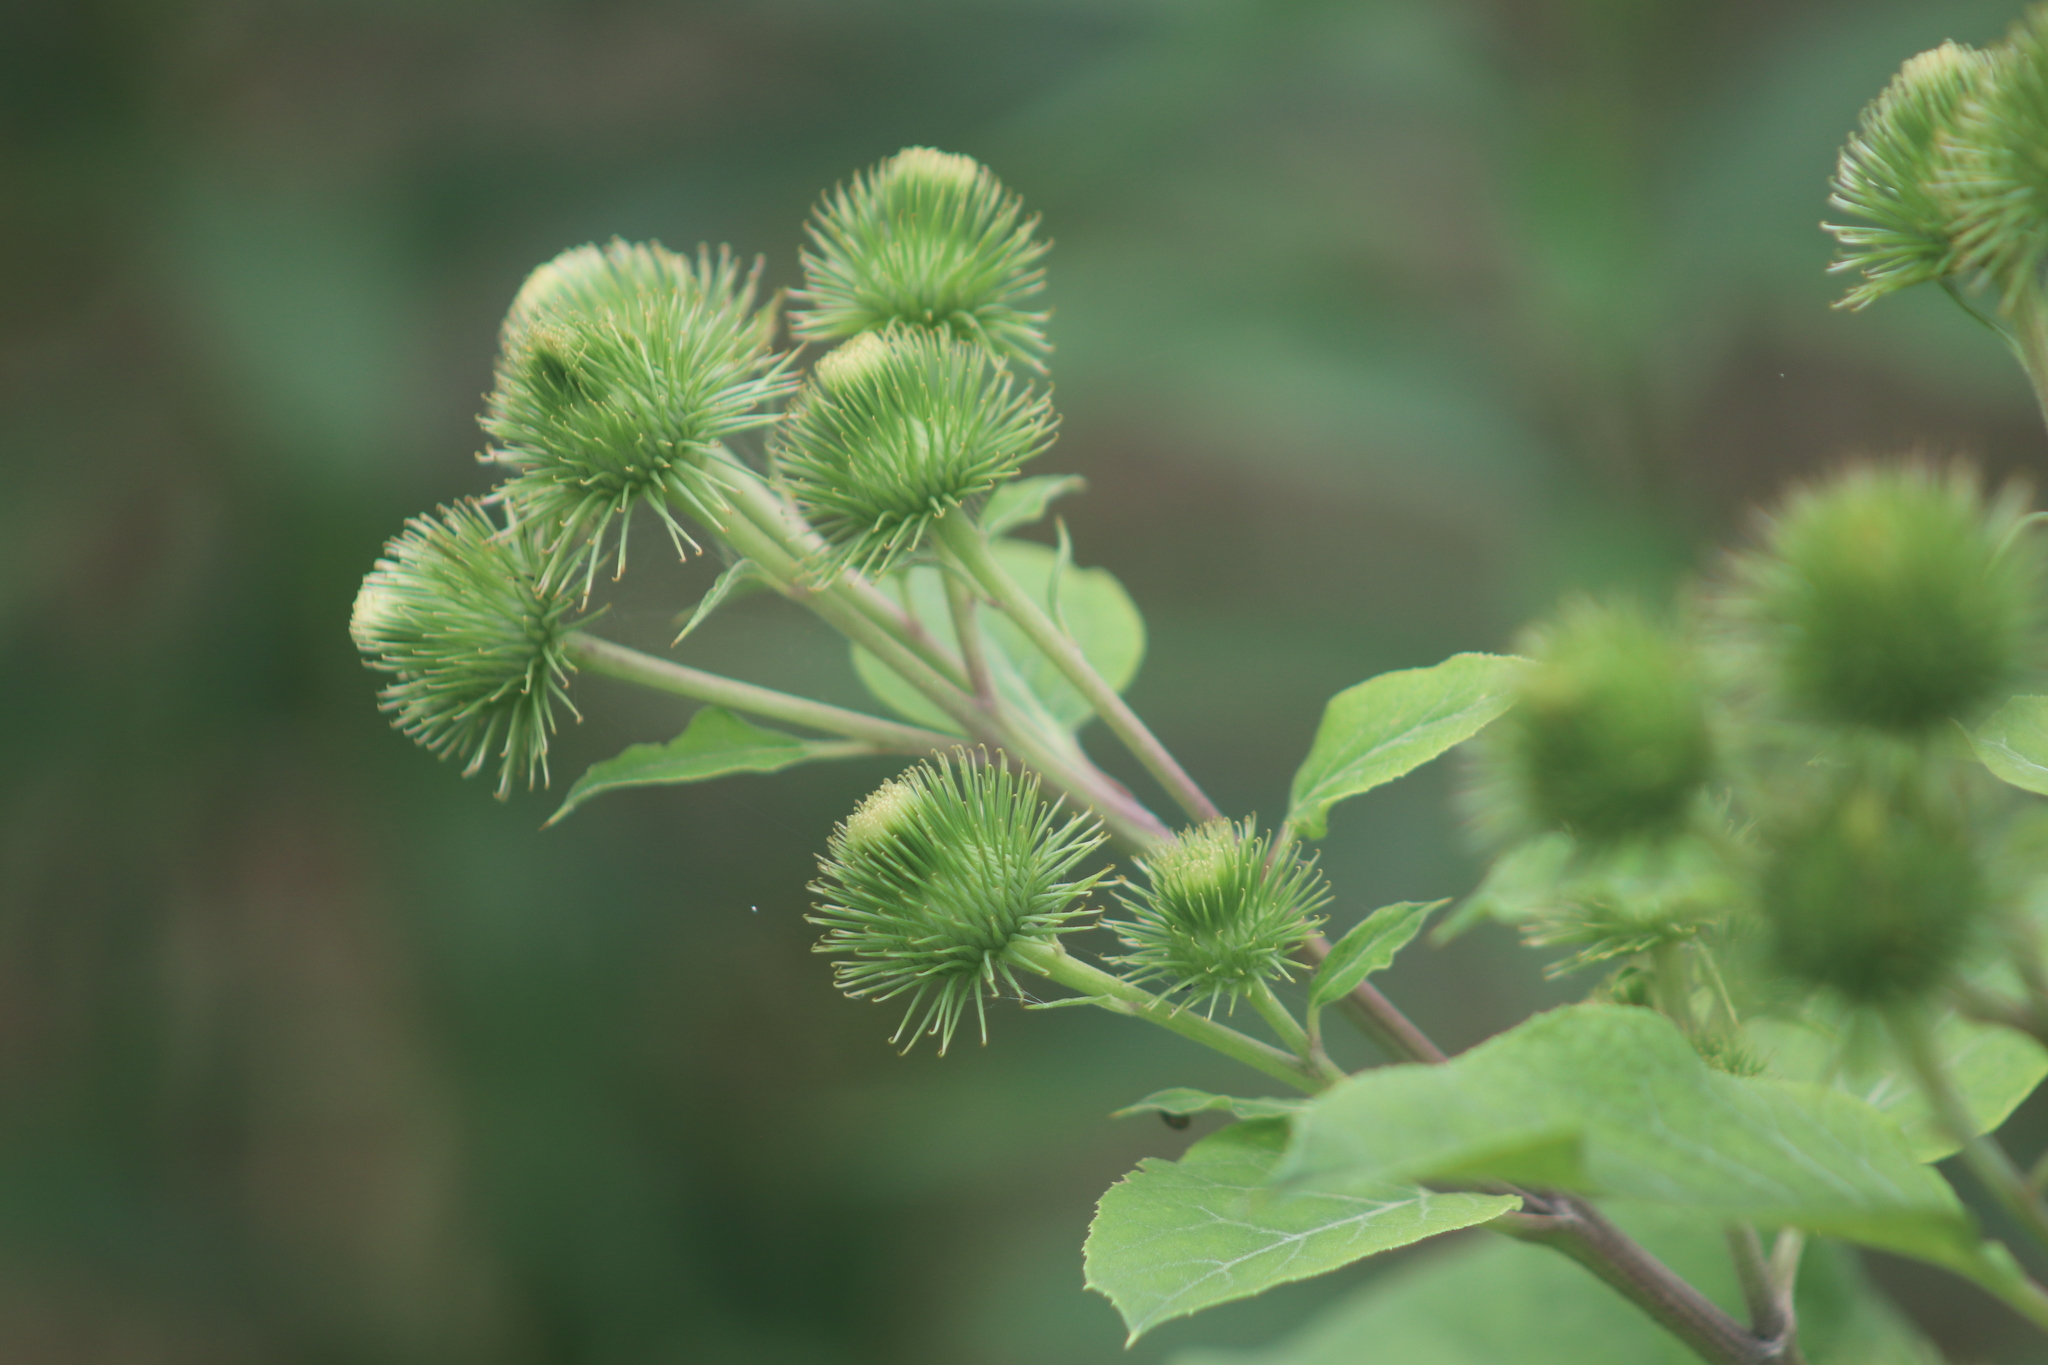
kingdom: Plantae
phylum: Tracheophyta
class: Magnoliopsida
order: Asterales
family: Asteraceae
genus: Arctium
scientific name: Arctium lappa
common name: Greater burdock
